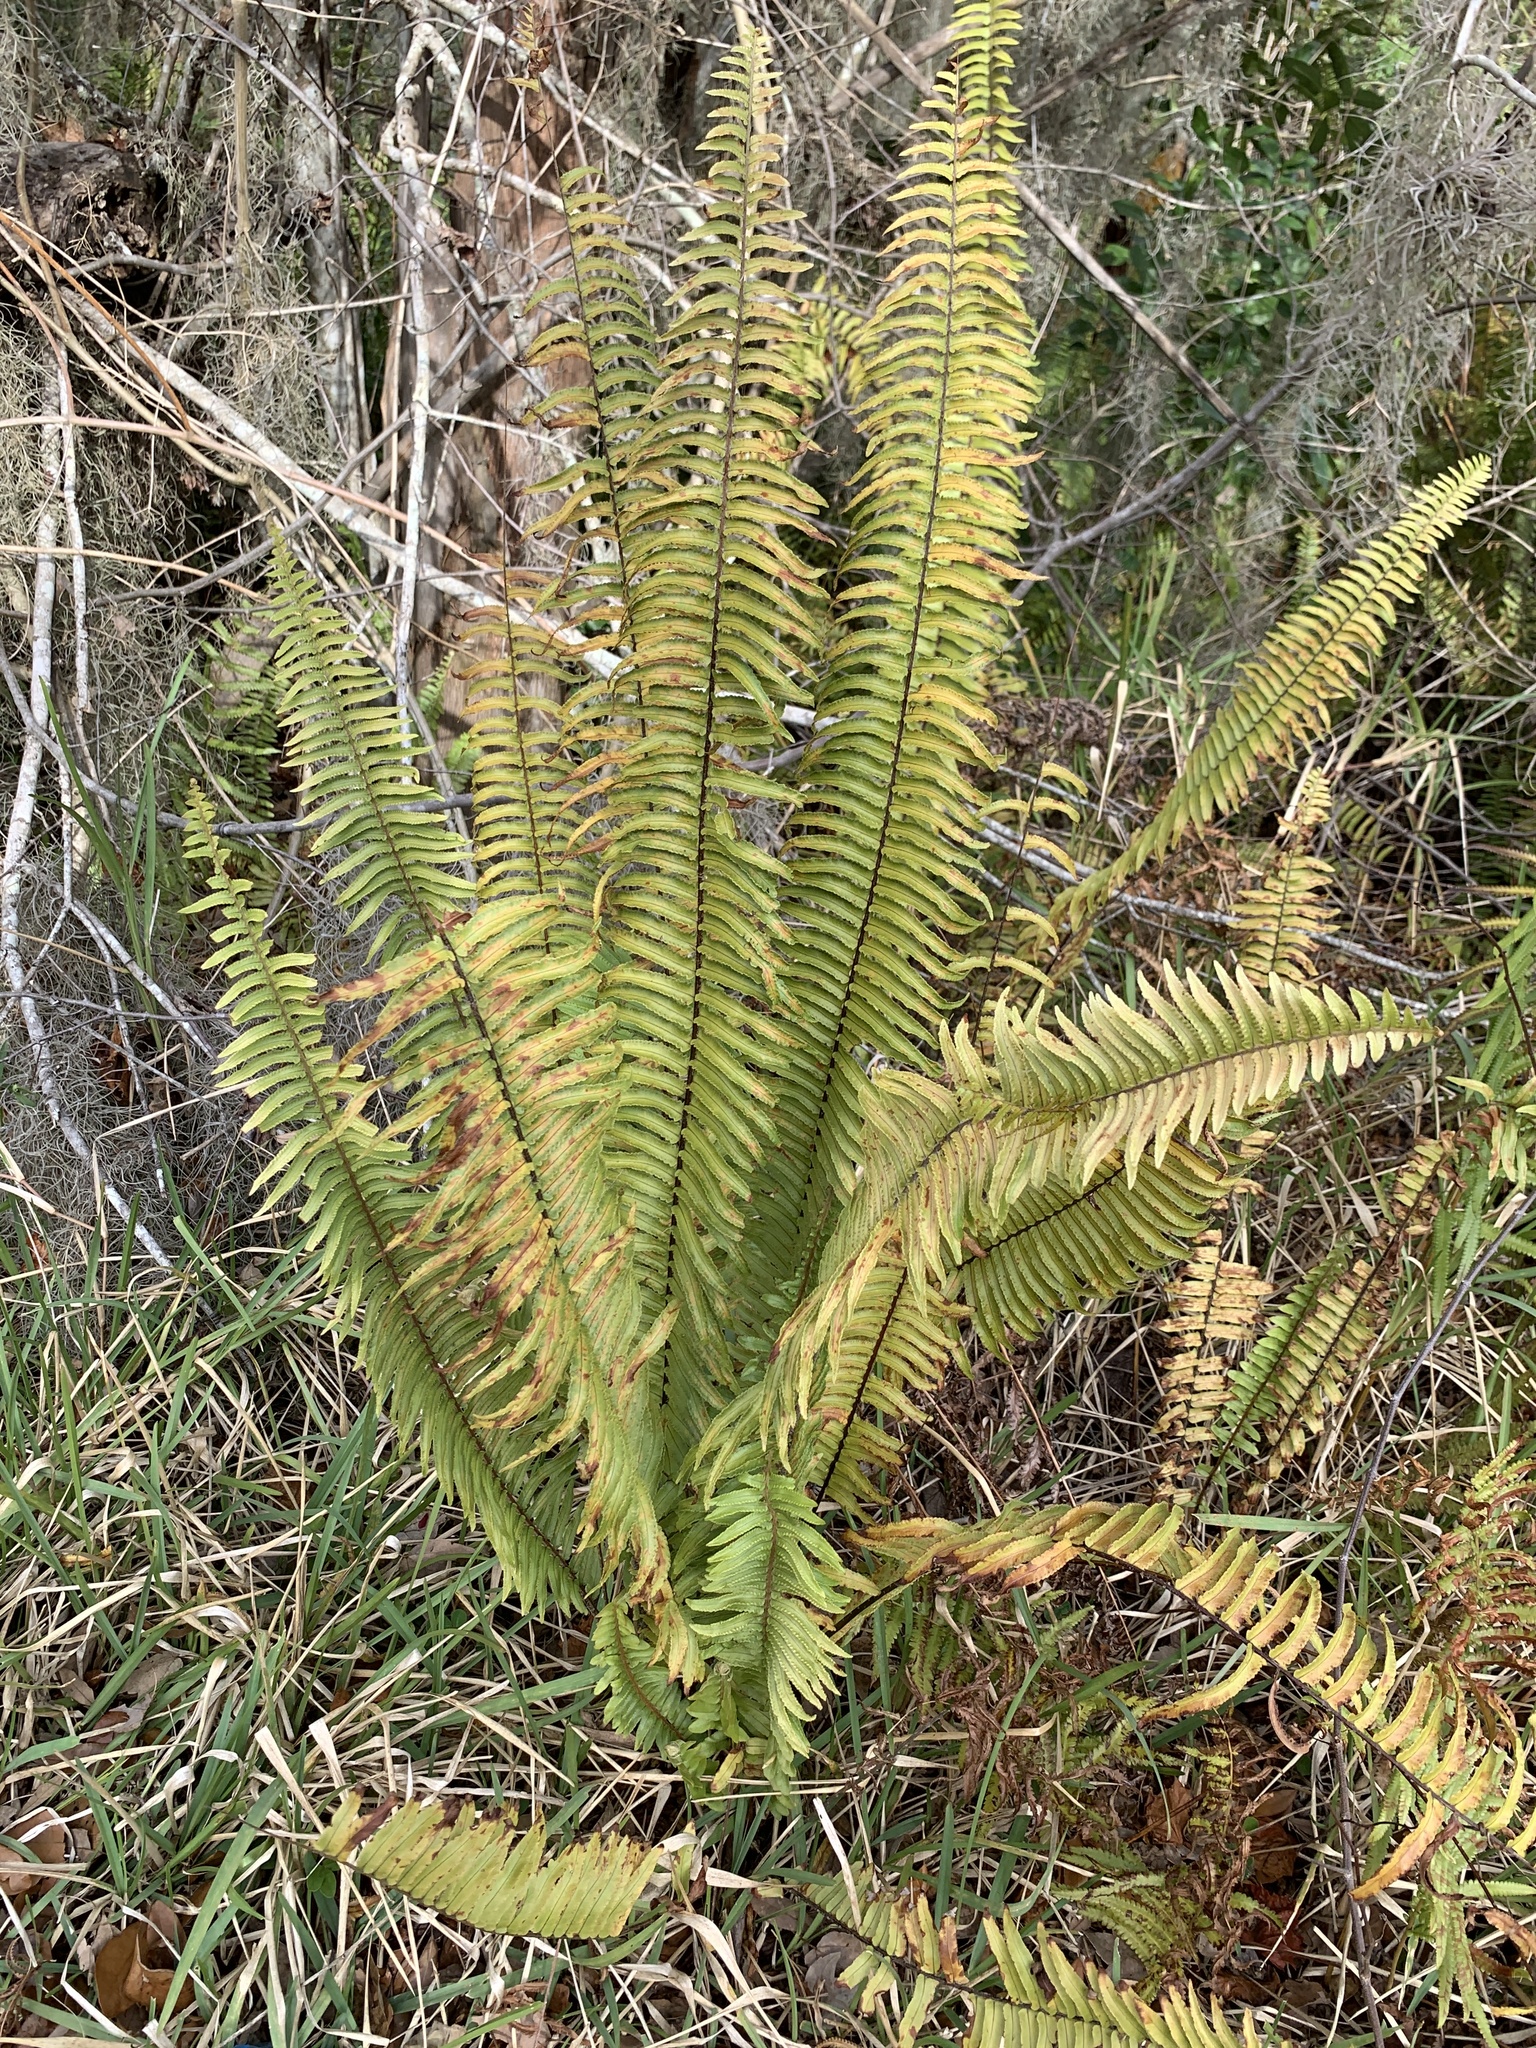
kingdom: Plantae
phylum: Tracheophyta
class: Polypodiopsida
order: Polypodiales
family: Nephrolepidaceae
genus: Nephrolepis
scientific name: Nephrolepis brownii
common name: Asian swordfern
